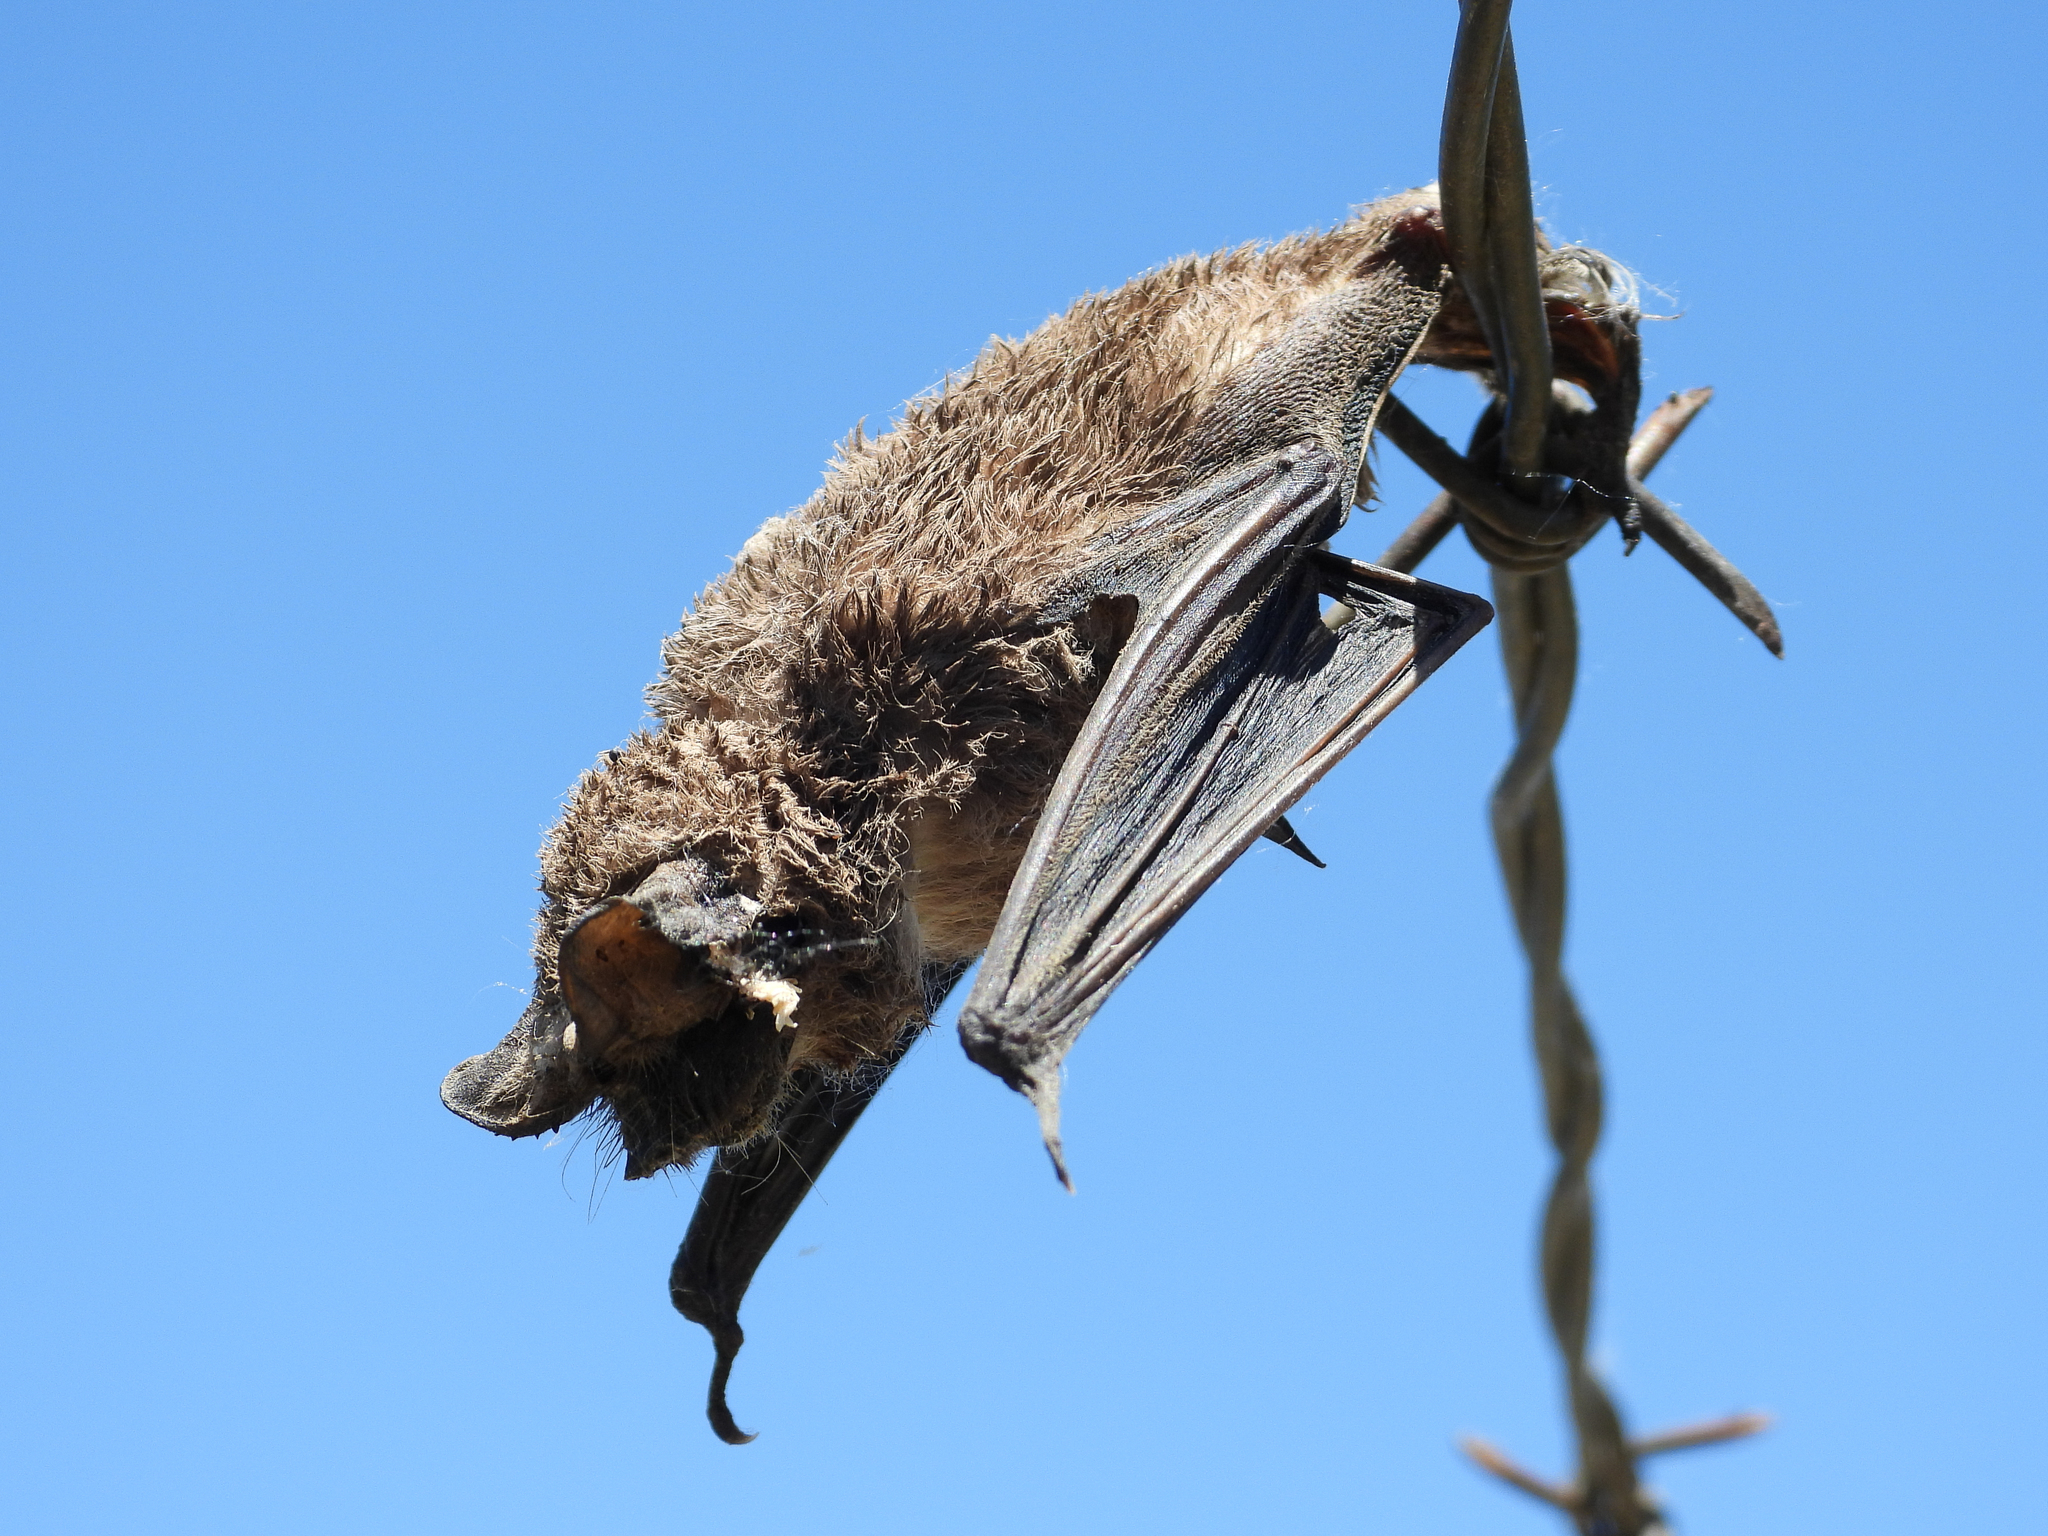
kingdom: Animalia
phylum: Chordata
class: Mammalia
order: Chiroptera
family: Molossidae
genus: Tadarida
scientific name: Tadarida brasiliensis
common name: Mexican free-tailed bat
